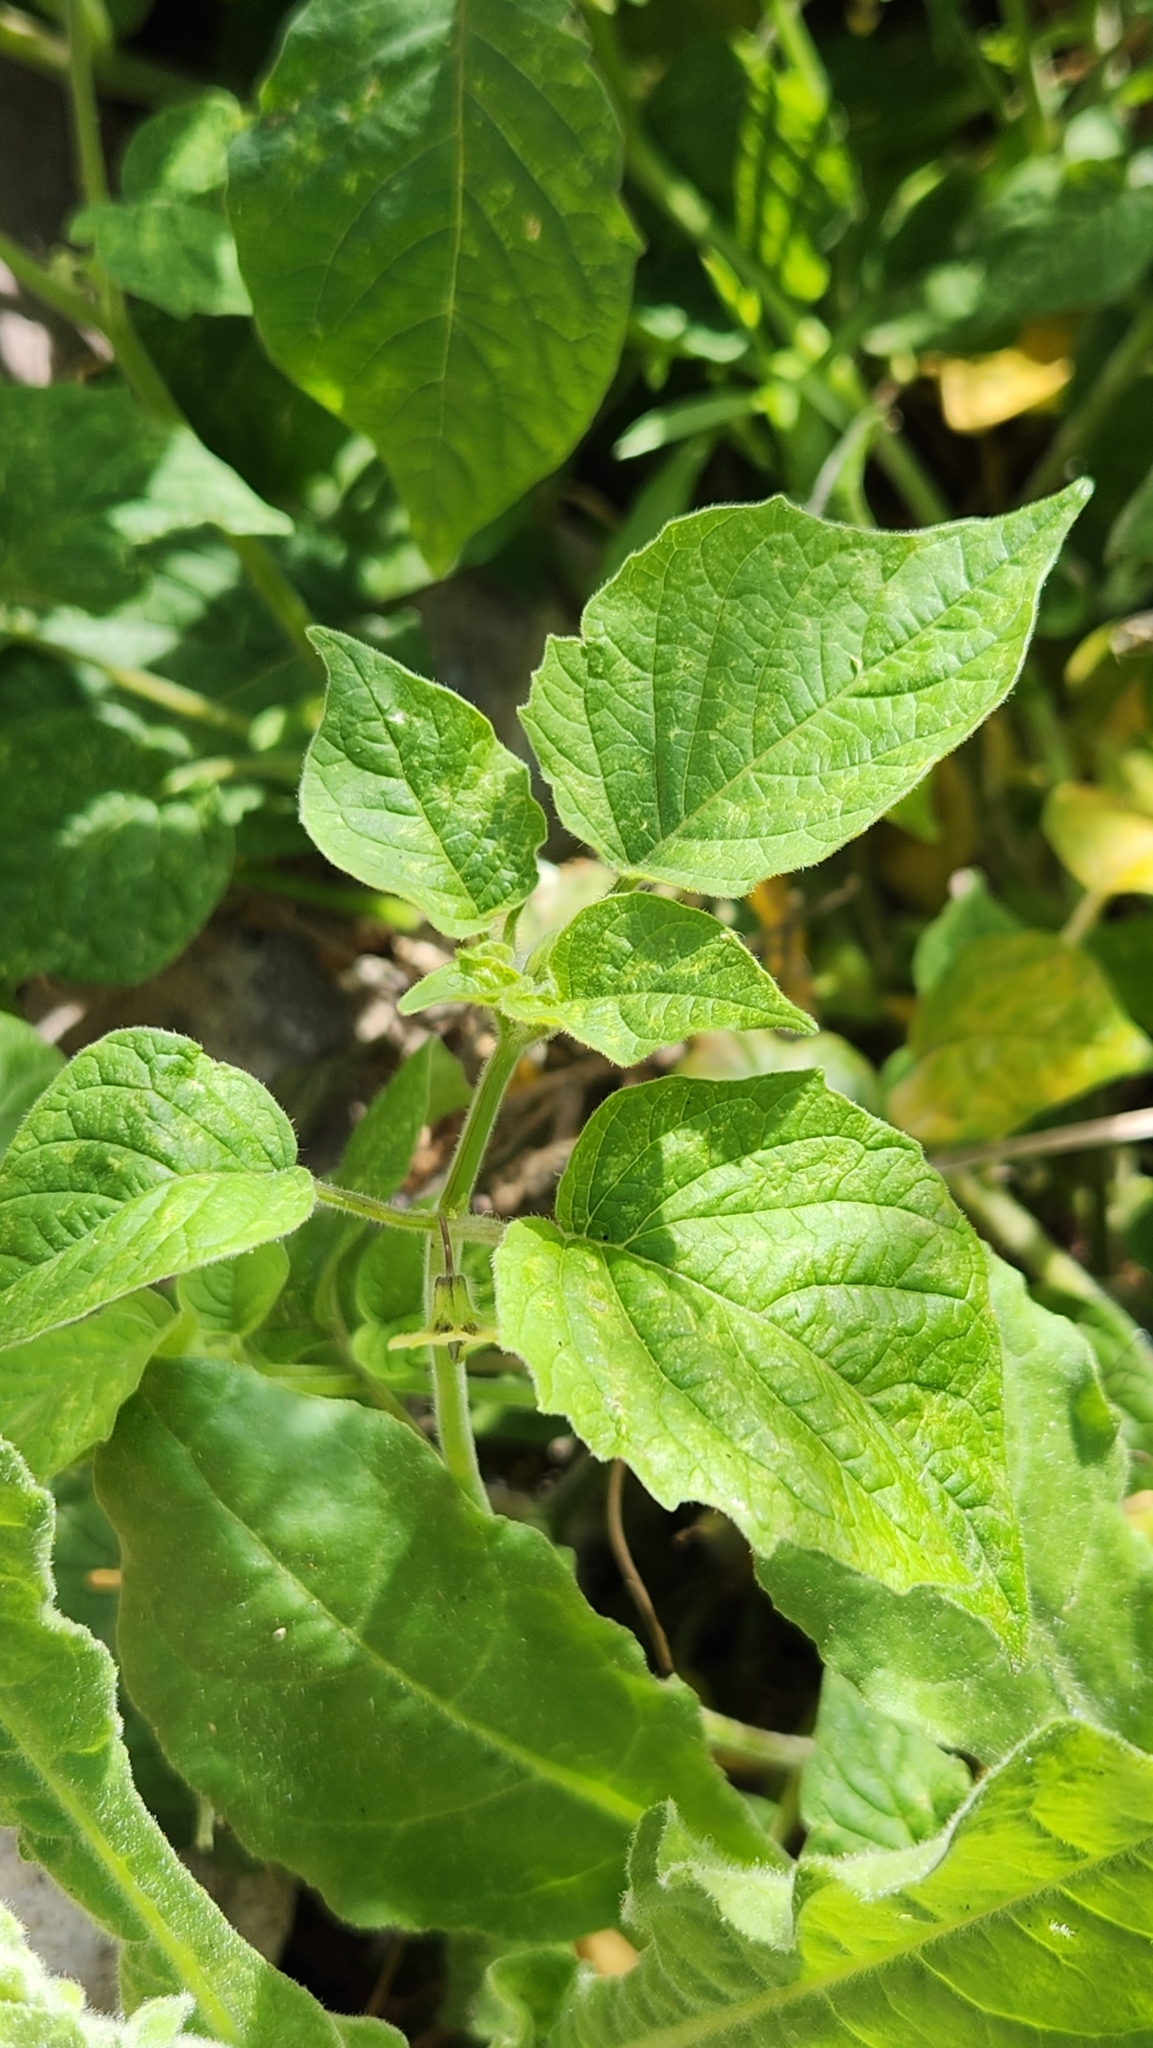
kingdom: Plantae
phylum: Tracheophyta
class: Magnoliopsida
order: Solanales
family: Solanaceae
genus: Physalis
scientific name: Physalis pubescens
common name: Downy ground-cherry
